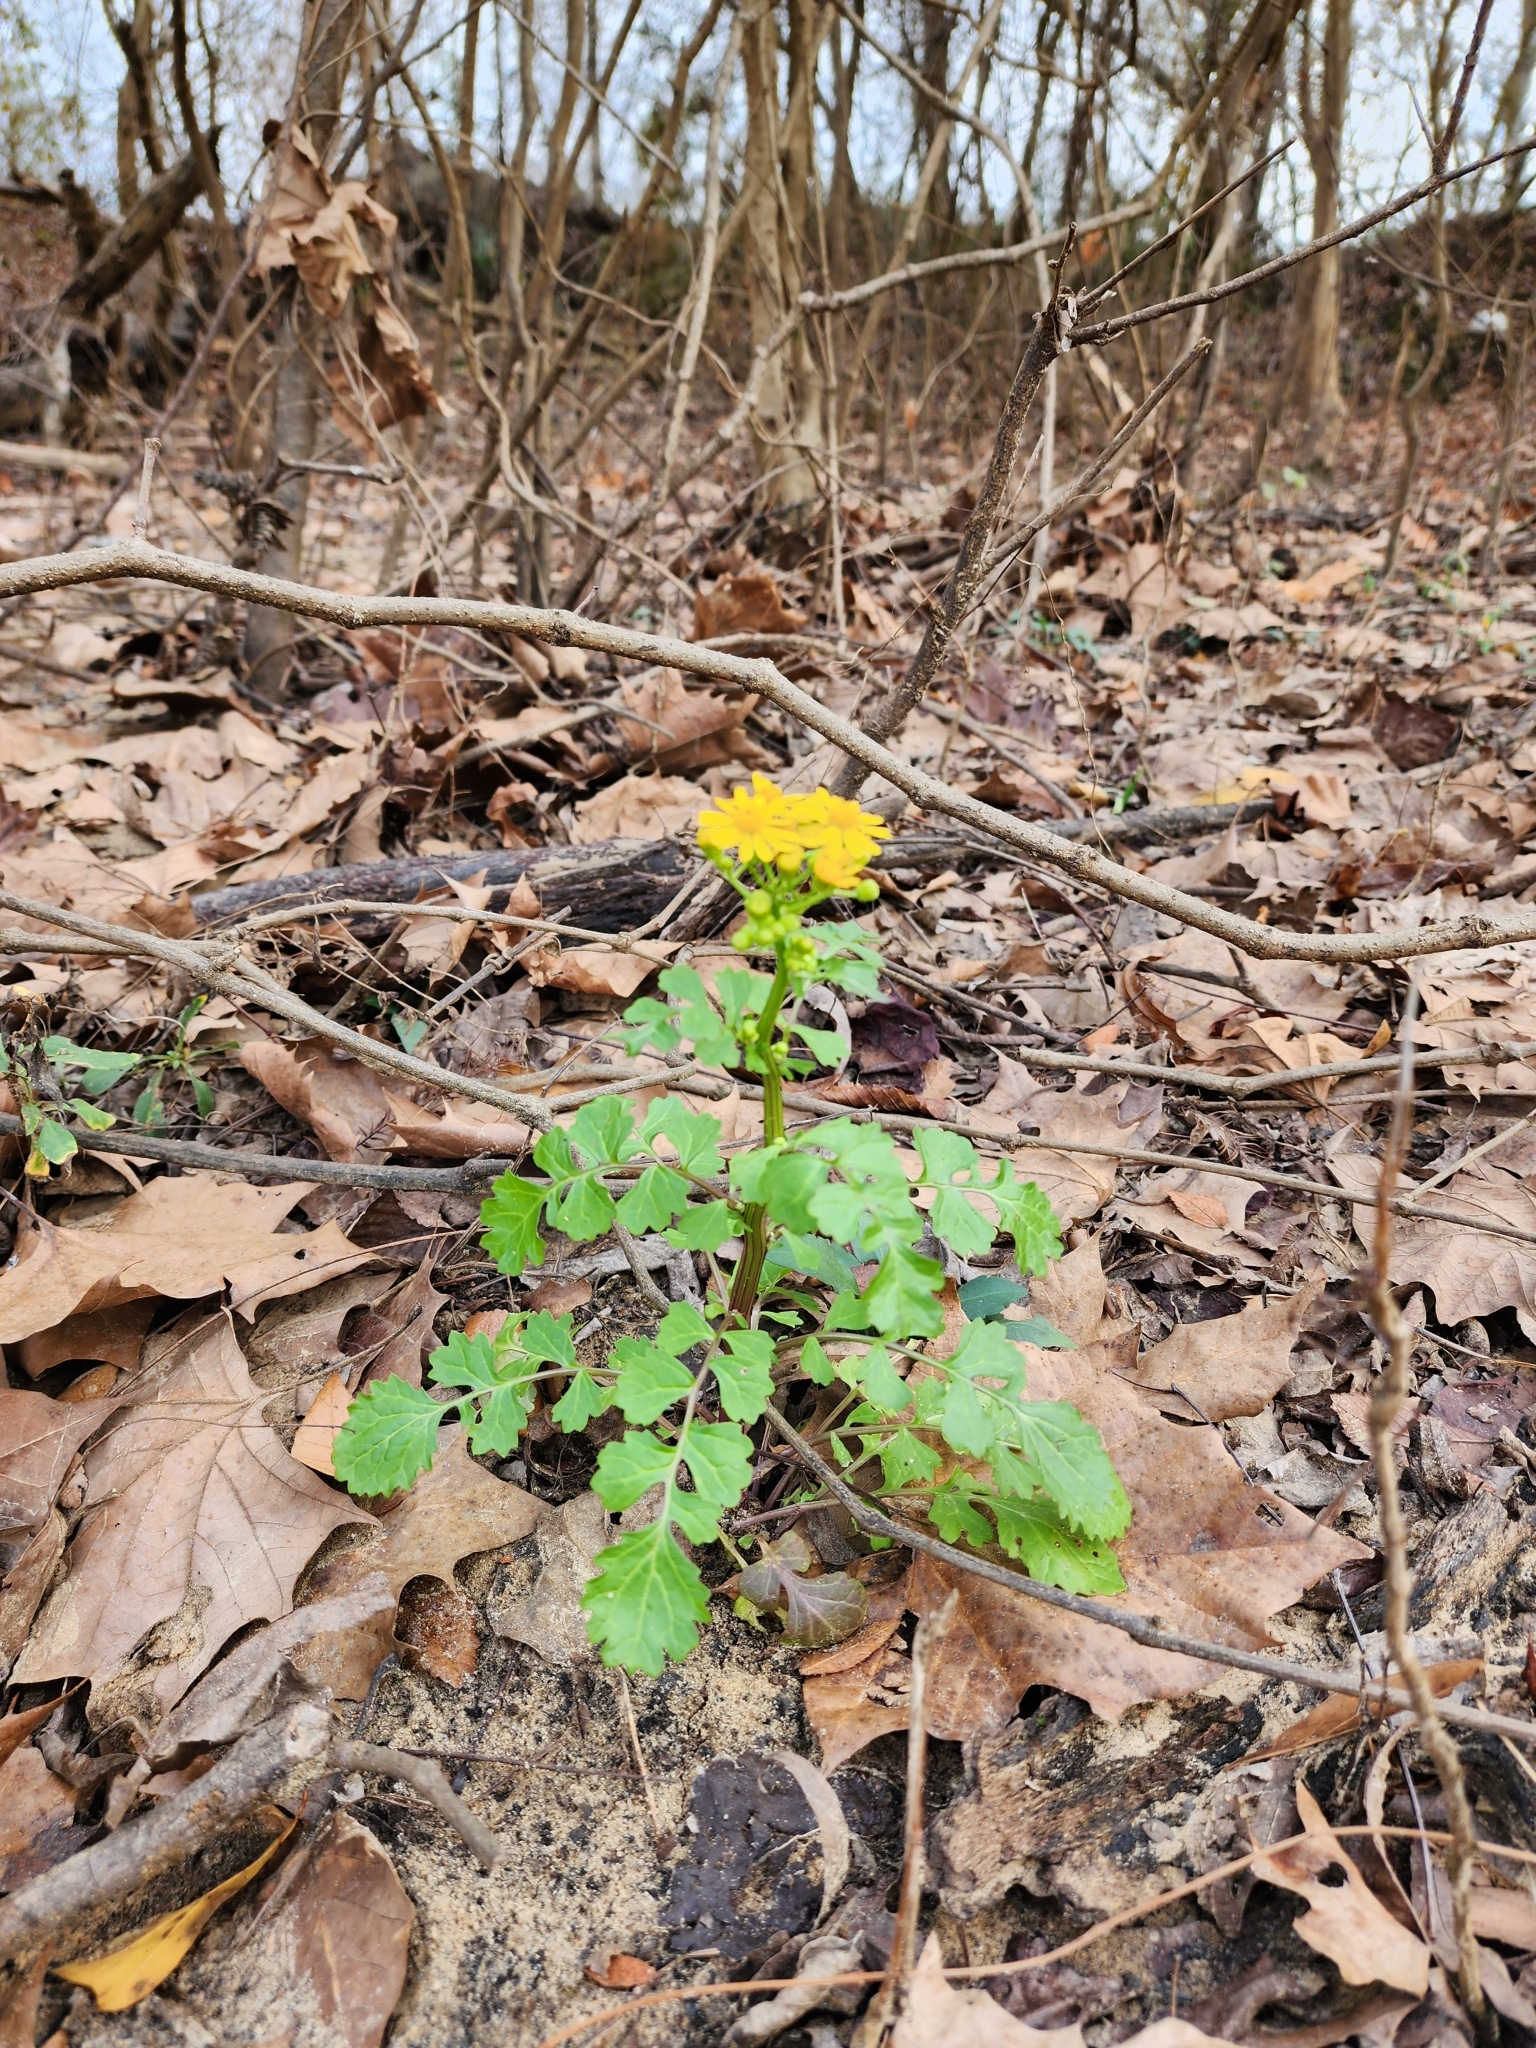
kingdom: Plantae
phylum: Tracheophyta
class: Magnoliopsida
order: Asterales
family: Asteraceae
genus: Packera
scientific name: Packera glabella
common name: Butterweed
